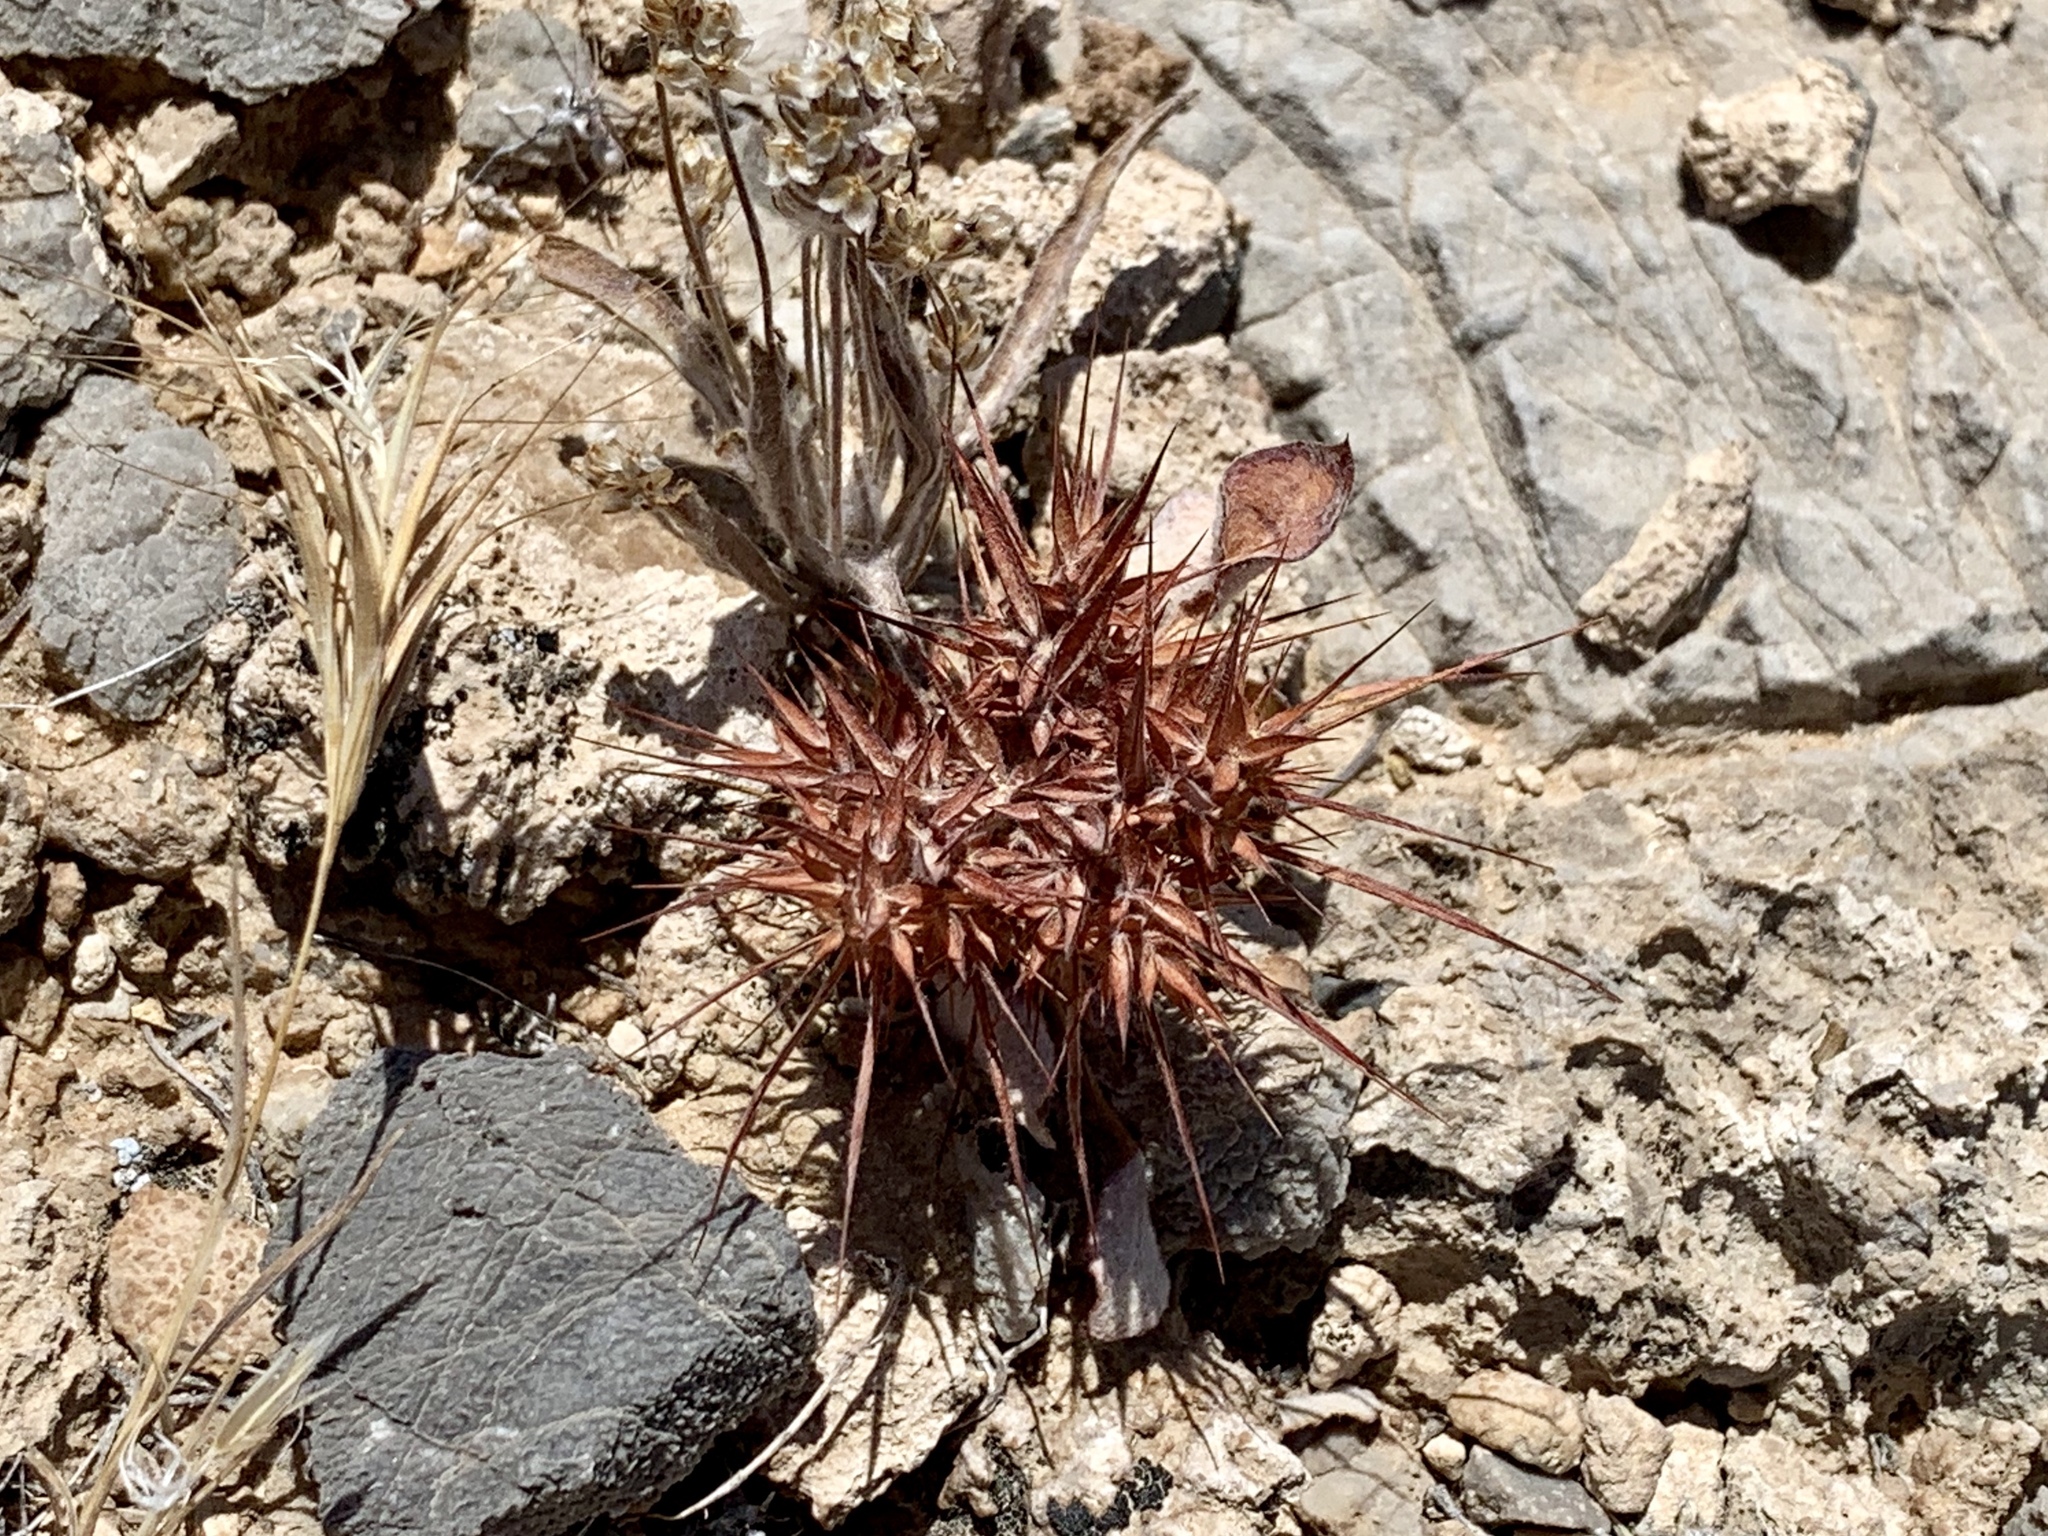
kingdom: Plantae
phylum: Tracheophyta
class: Magnoliopsida
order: Caryophyllales
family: Polygonaceae
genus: Chorizanthe
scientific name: Chorizanthe rigida
